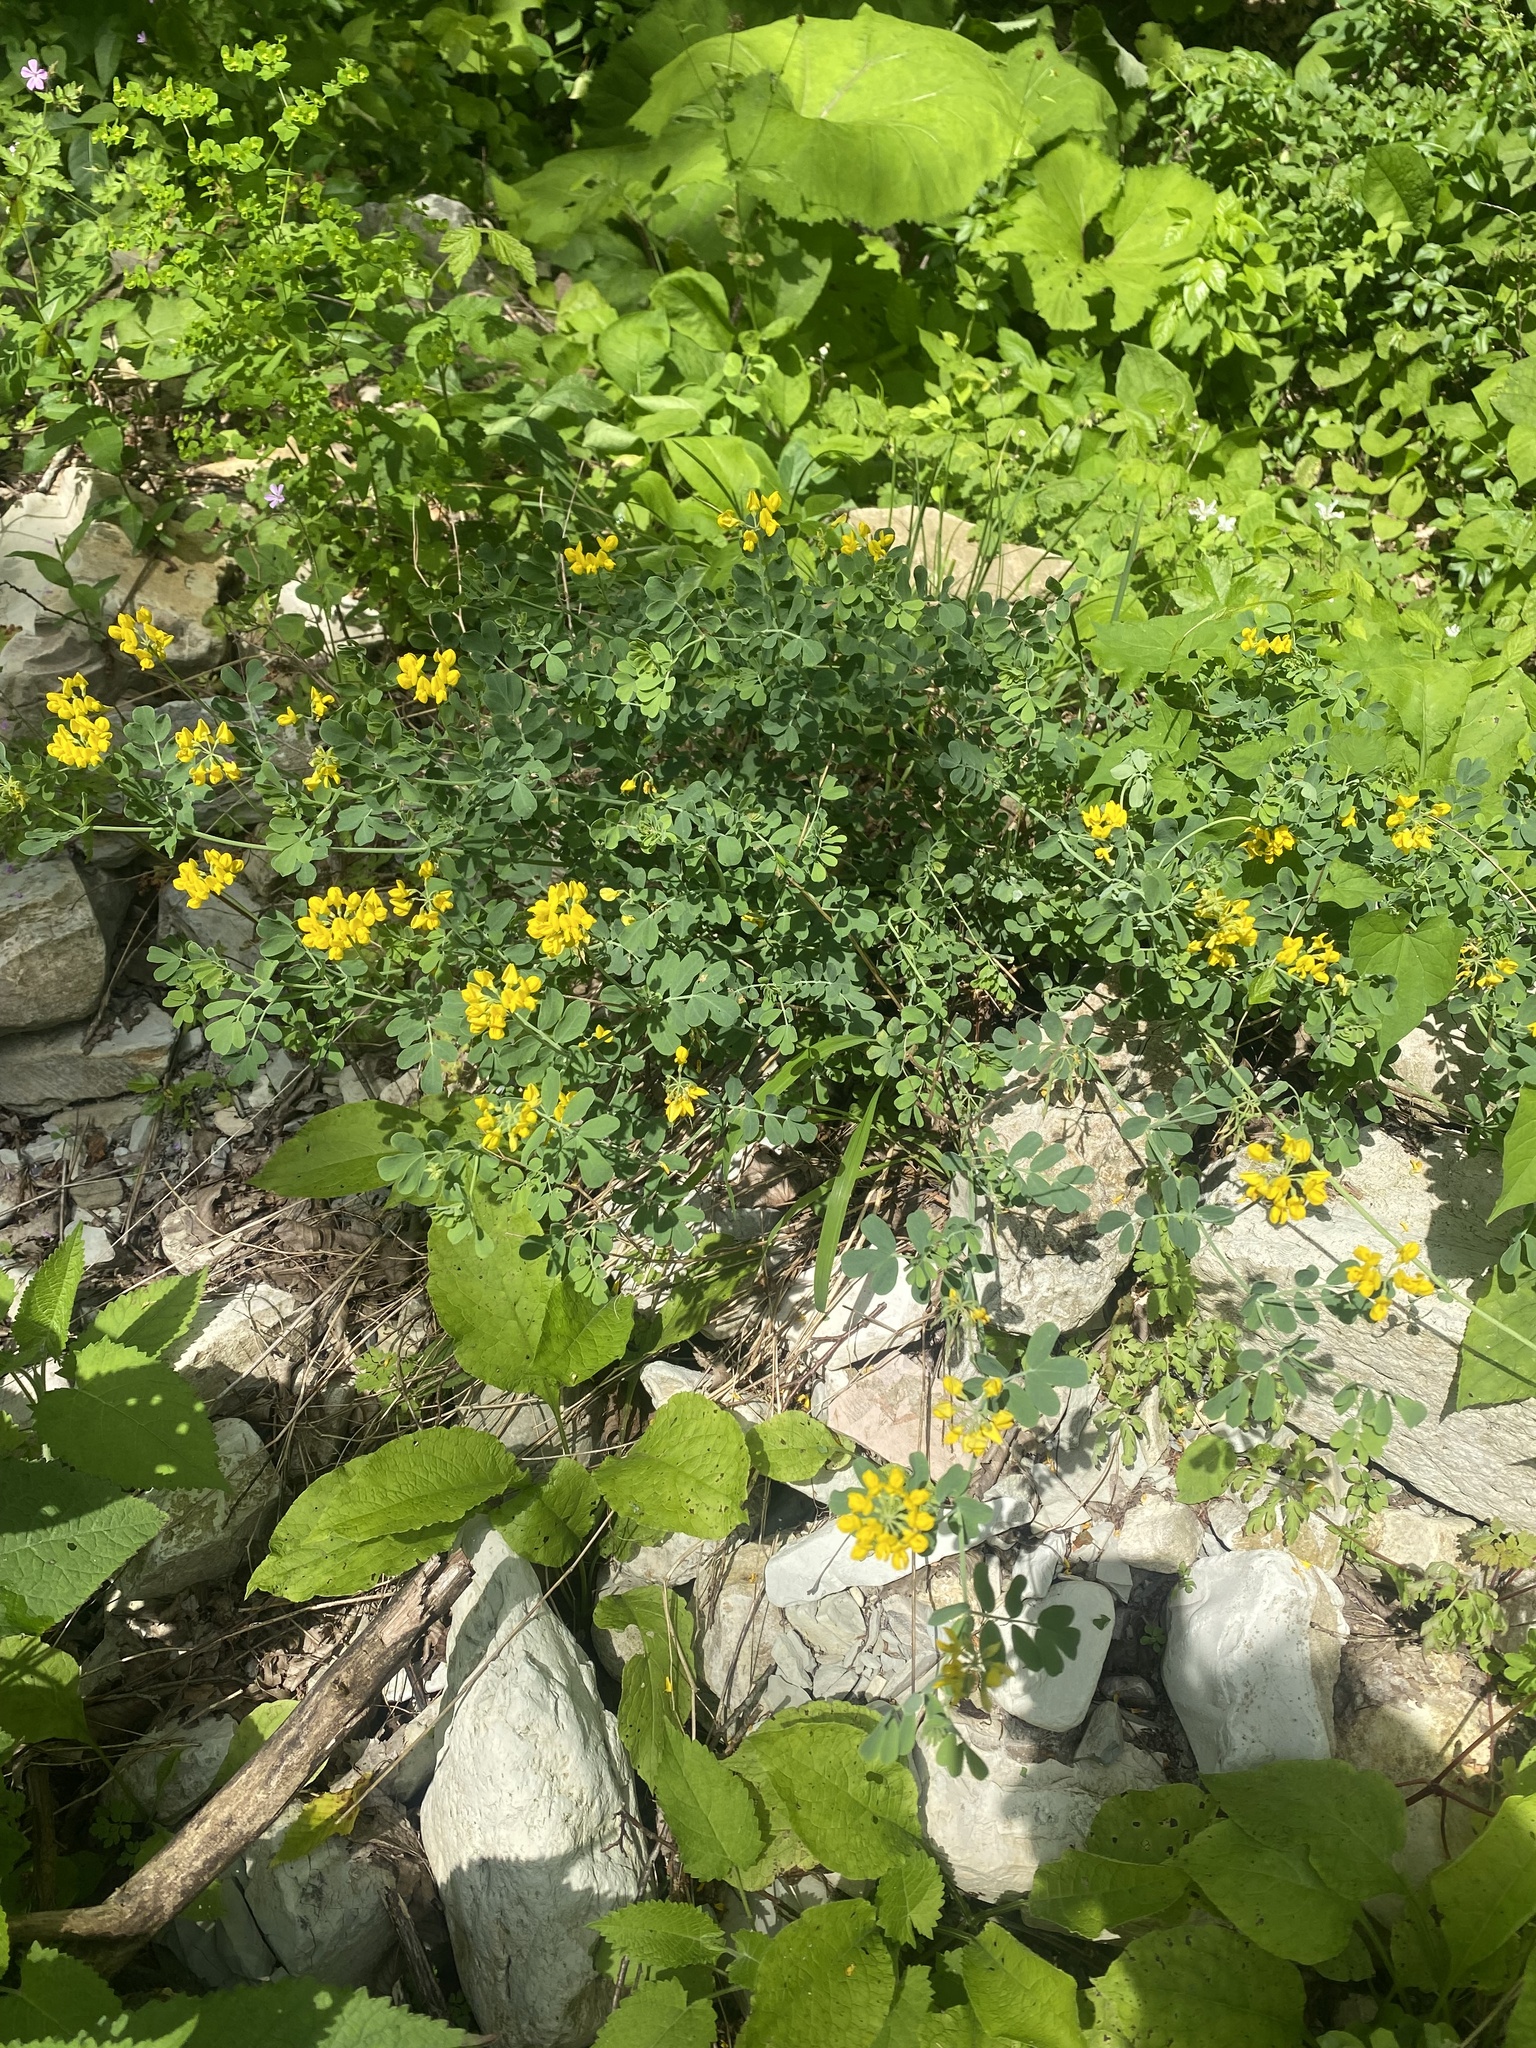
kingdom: Plantae
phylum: Tracheophyta
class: Magnoliopsida
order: Fabales
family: Fabaceae
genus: Coronilla
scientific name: Coronilla coronata
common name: Scorpion-vetch
